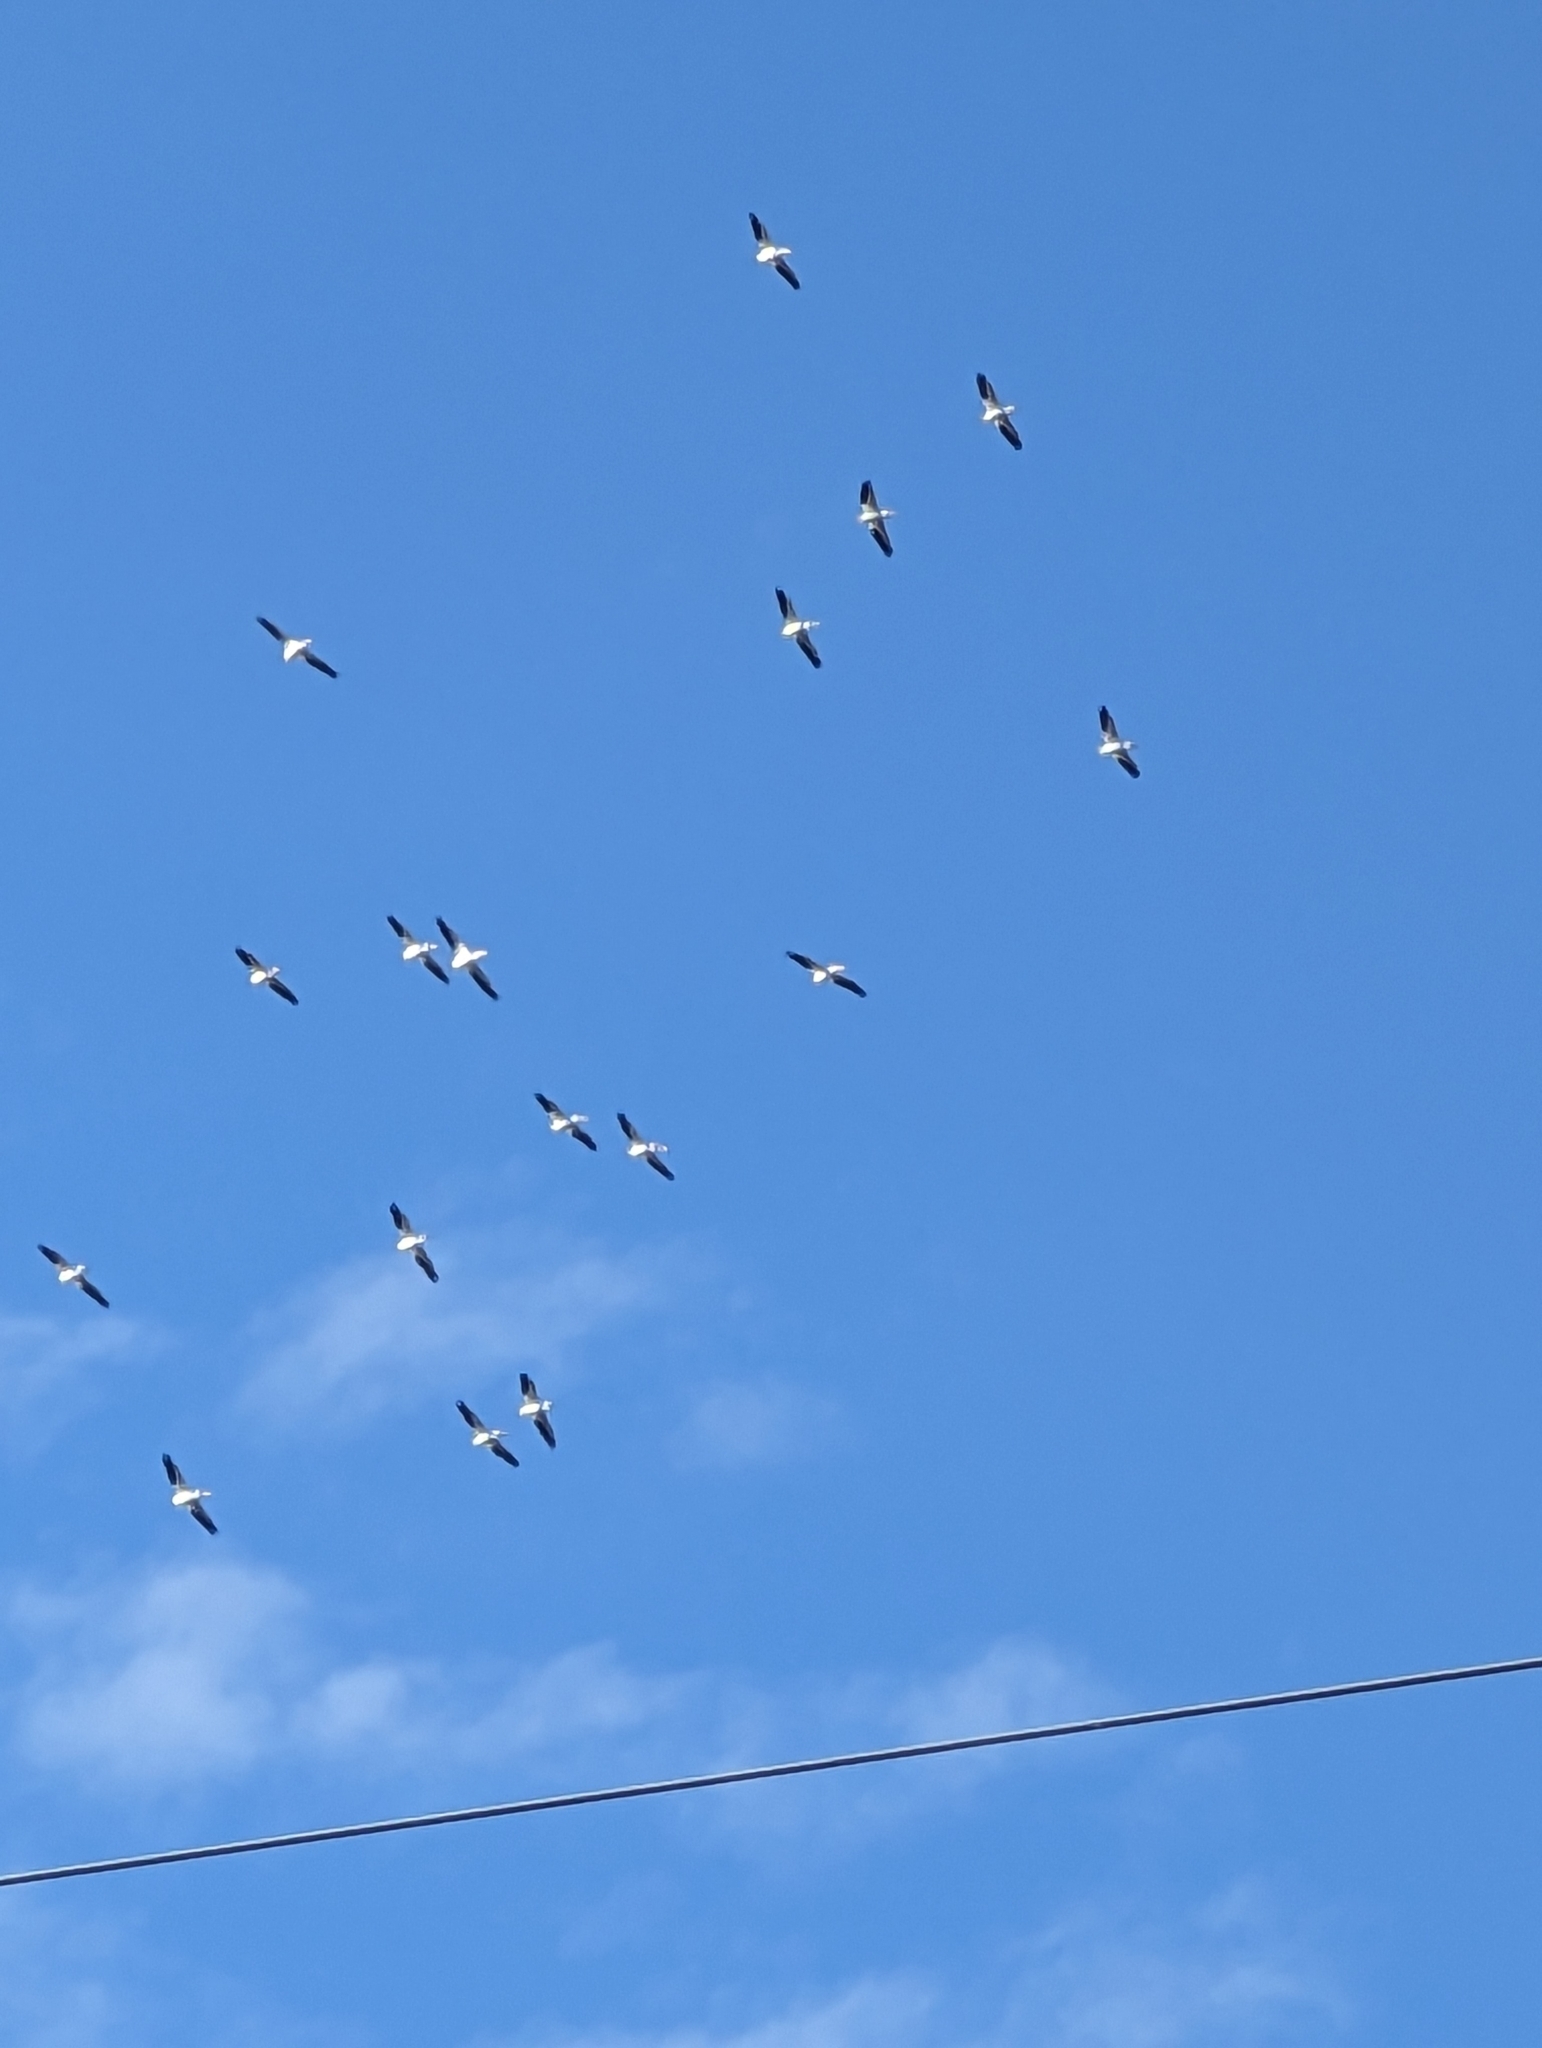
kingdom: Animalia
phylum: Chordata
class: Aves
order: Pelecaniformes
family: Pelecanidae
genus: Pelecanus
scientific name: Pelecanus erythrorhynchos
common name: American white pelican
